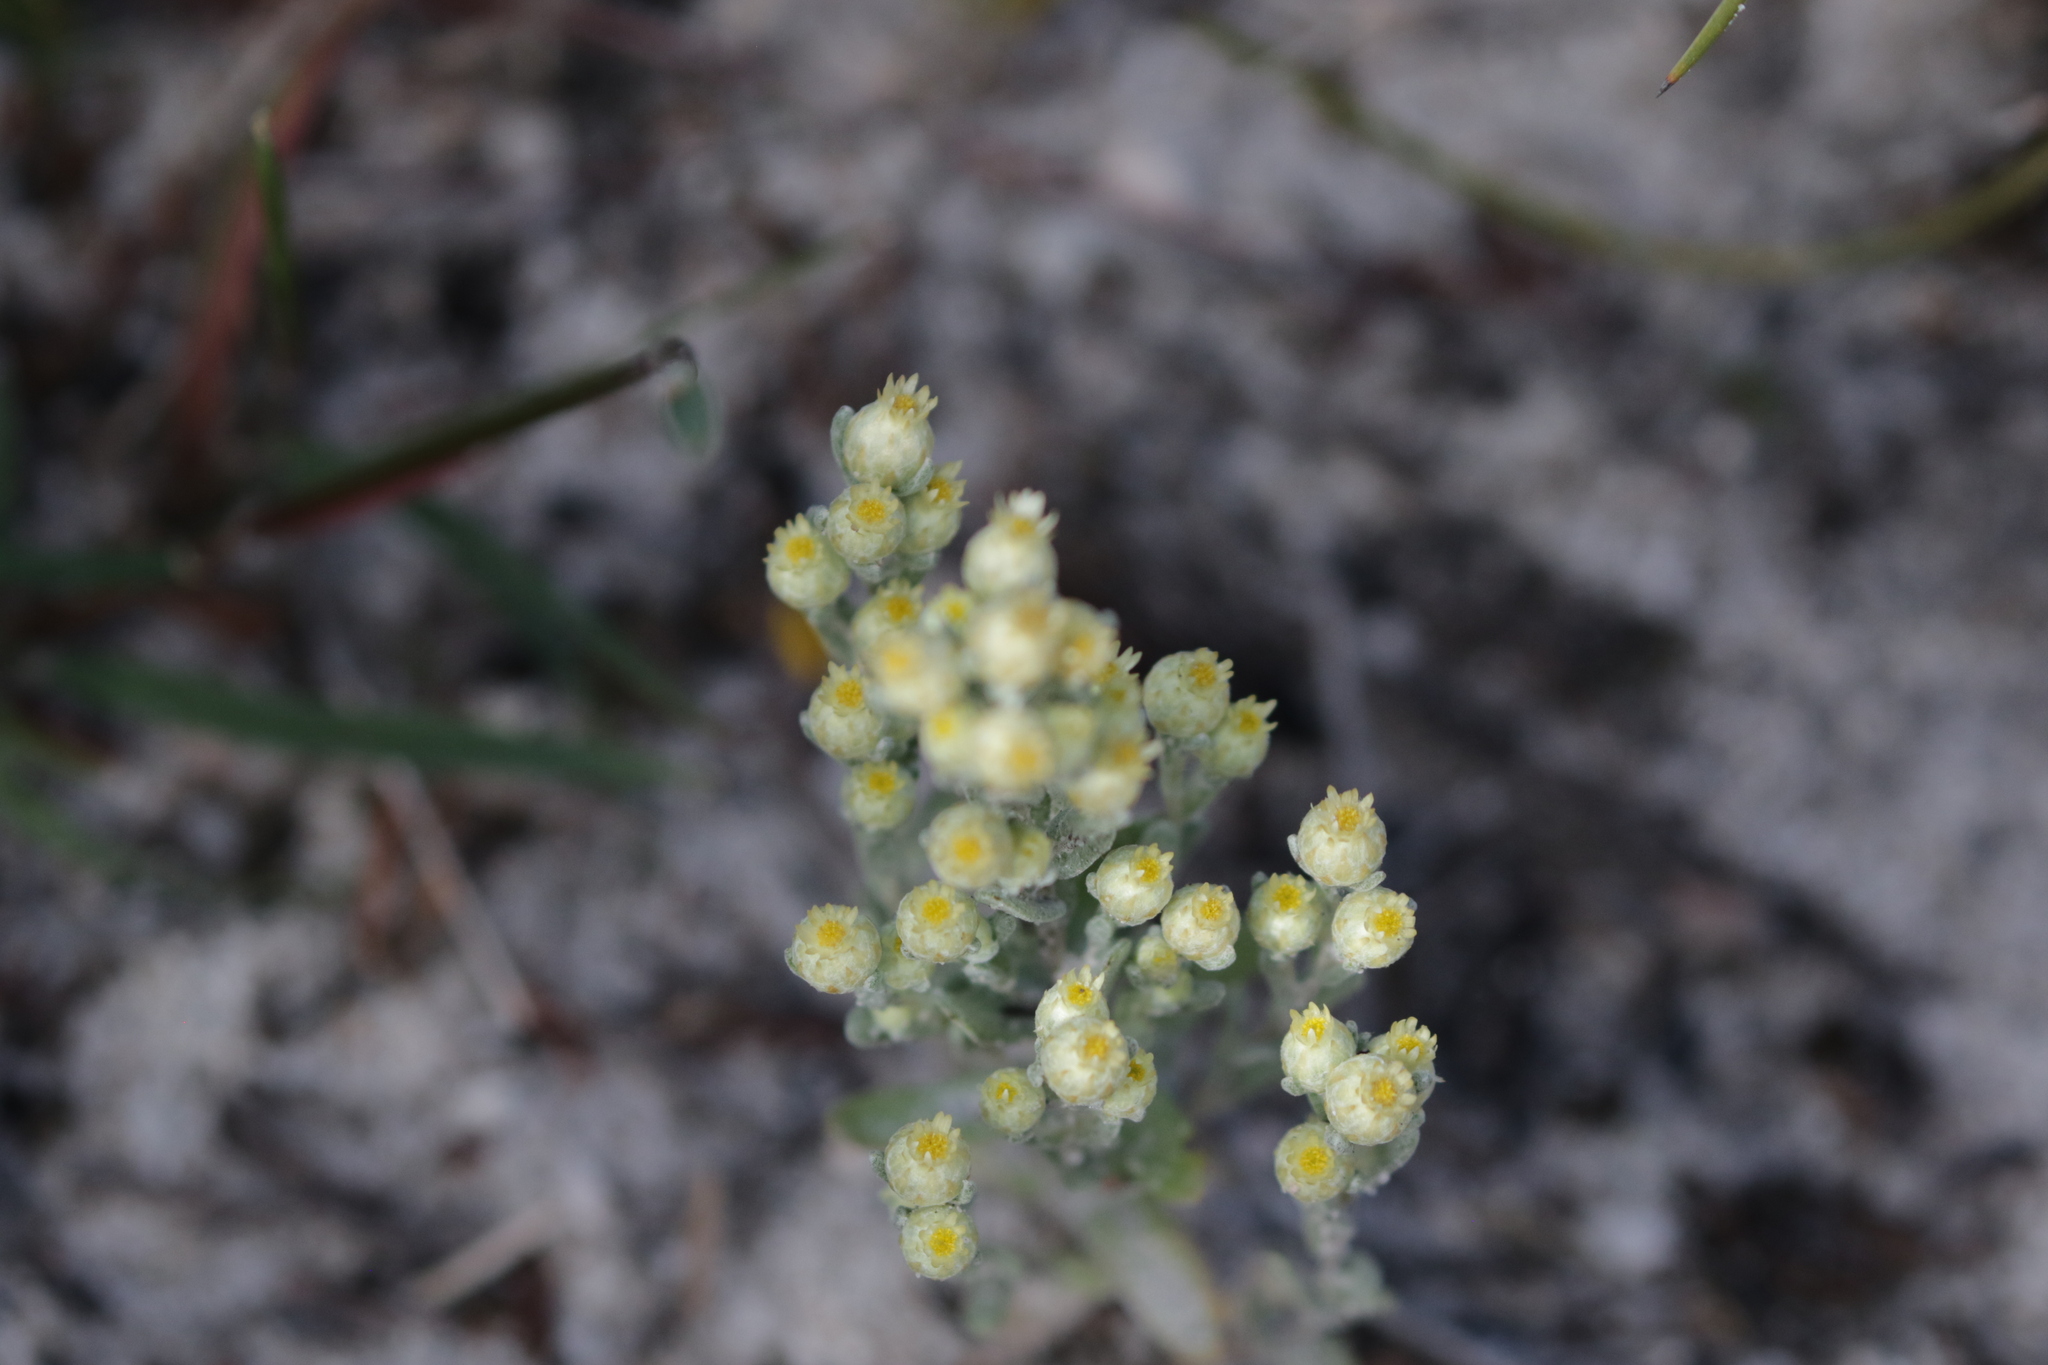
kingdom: Plantae
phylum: Tracheophyta
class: Magnoliopsida
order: Asterales
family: Asteraceae
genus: Pterochaeta
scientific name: Pterochaeta paniculata
